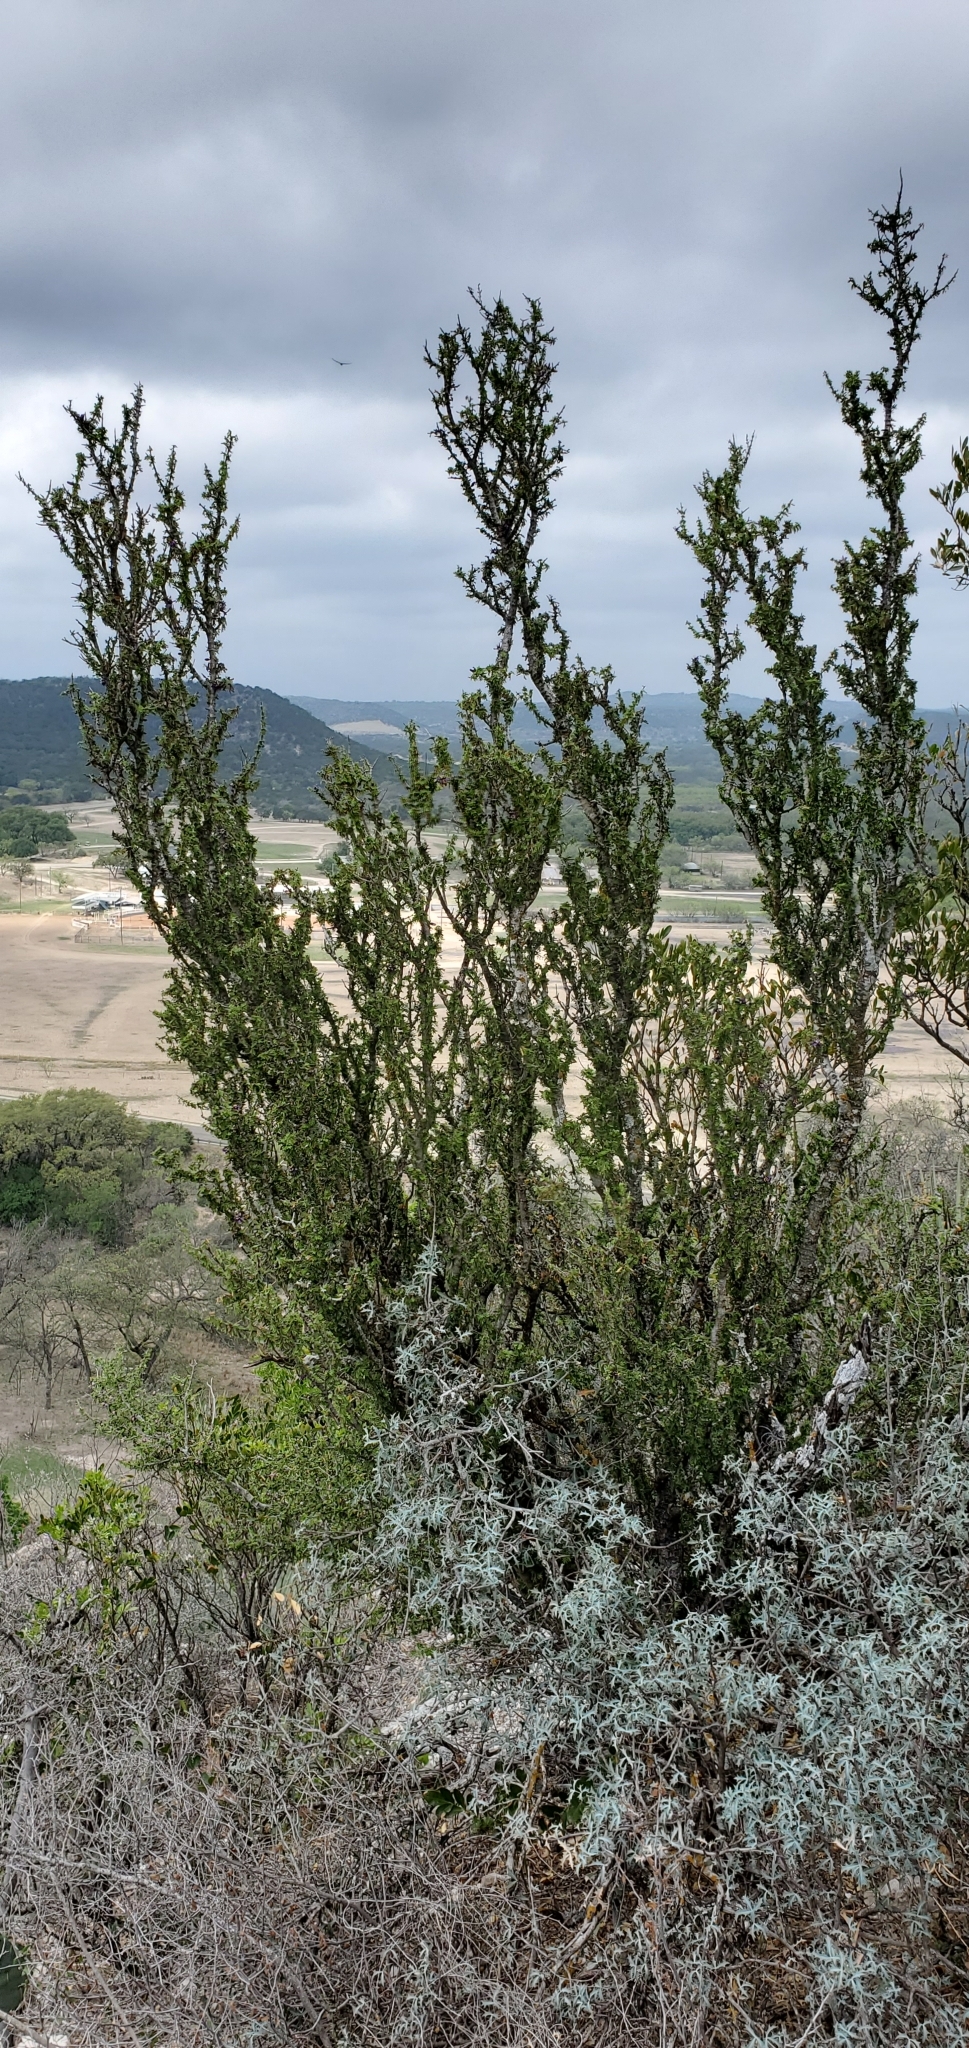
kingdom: Plantae
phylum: Tracheophyta
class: Magnoliopsida
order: Zygophyllales
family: Zygophyllaceae
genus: Porlieria
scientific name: Porlieria angustifolia
